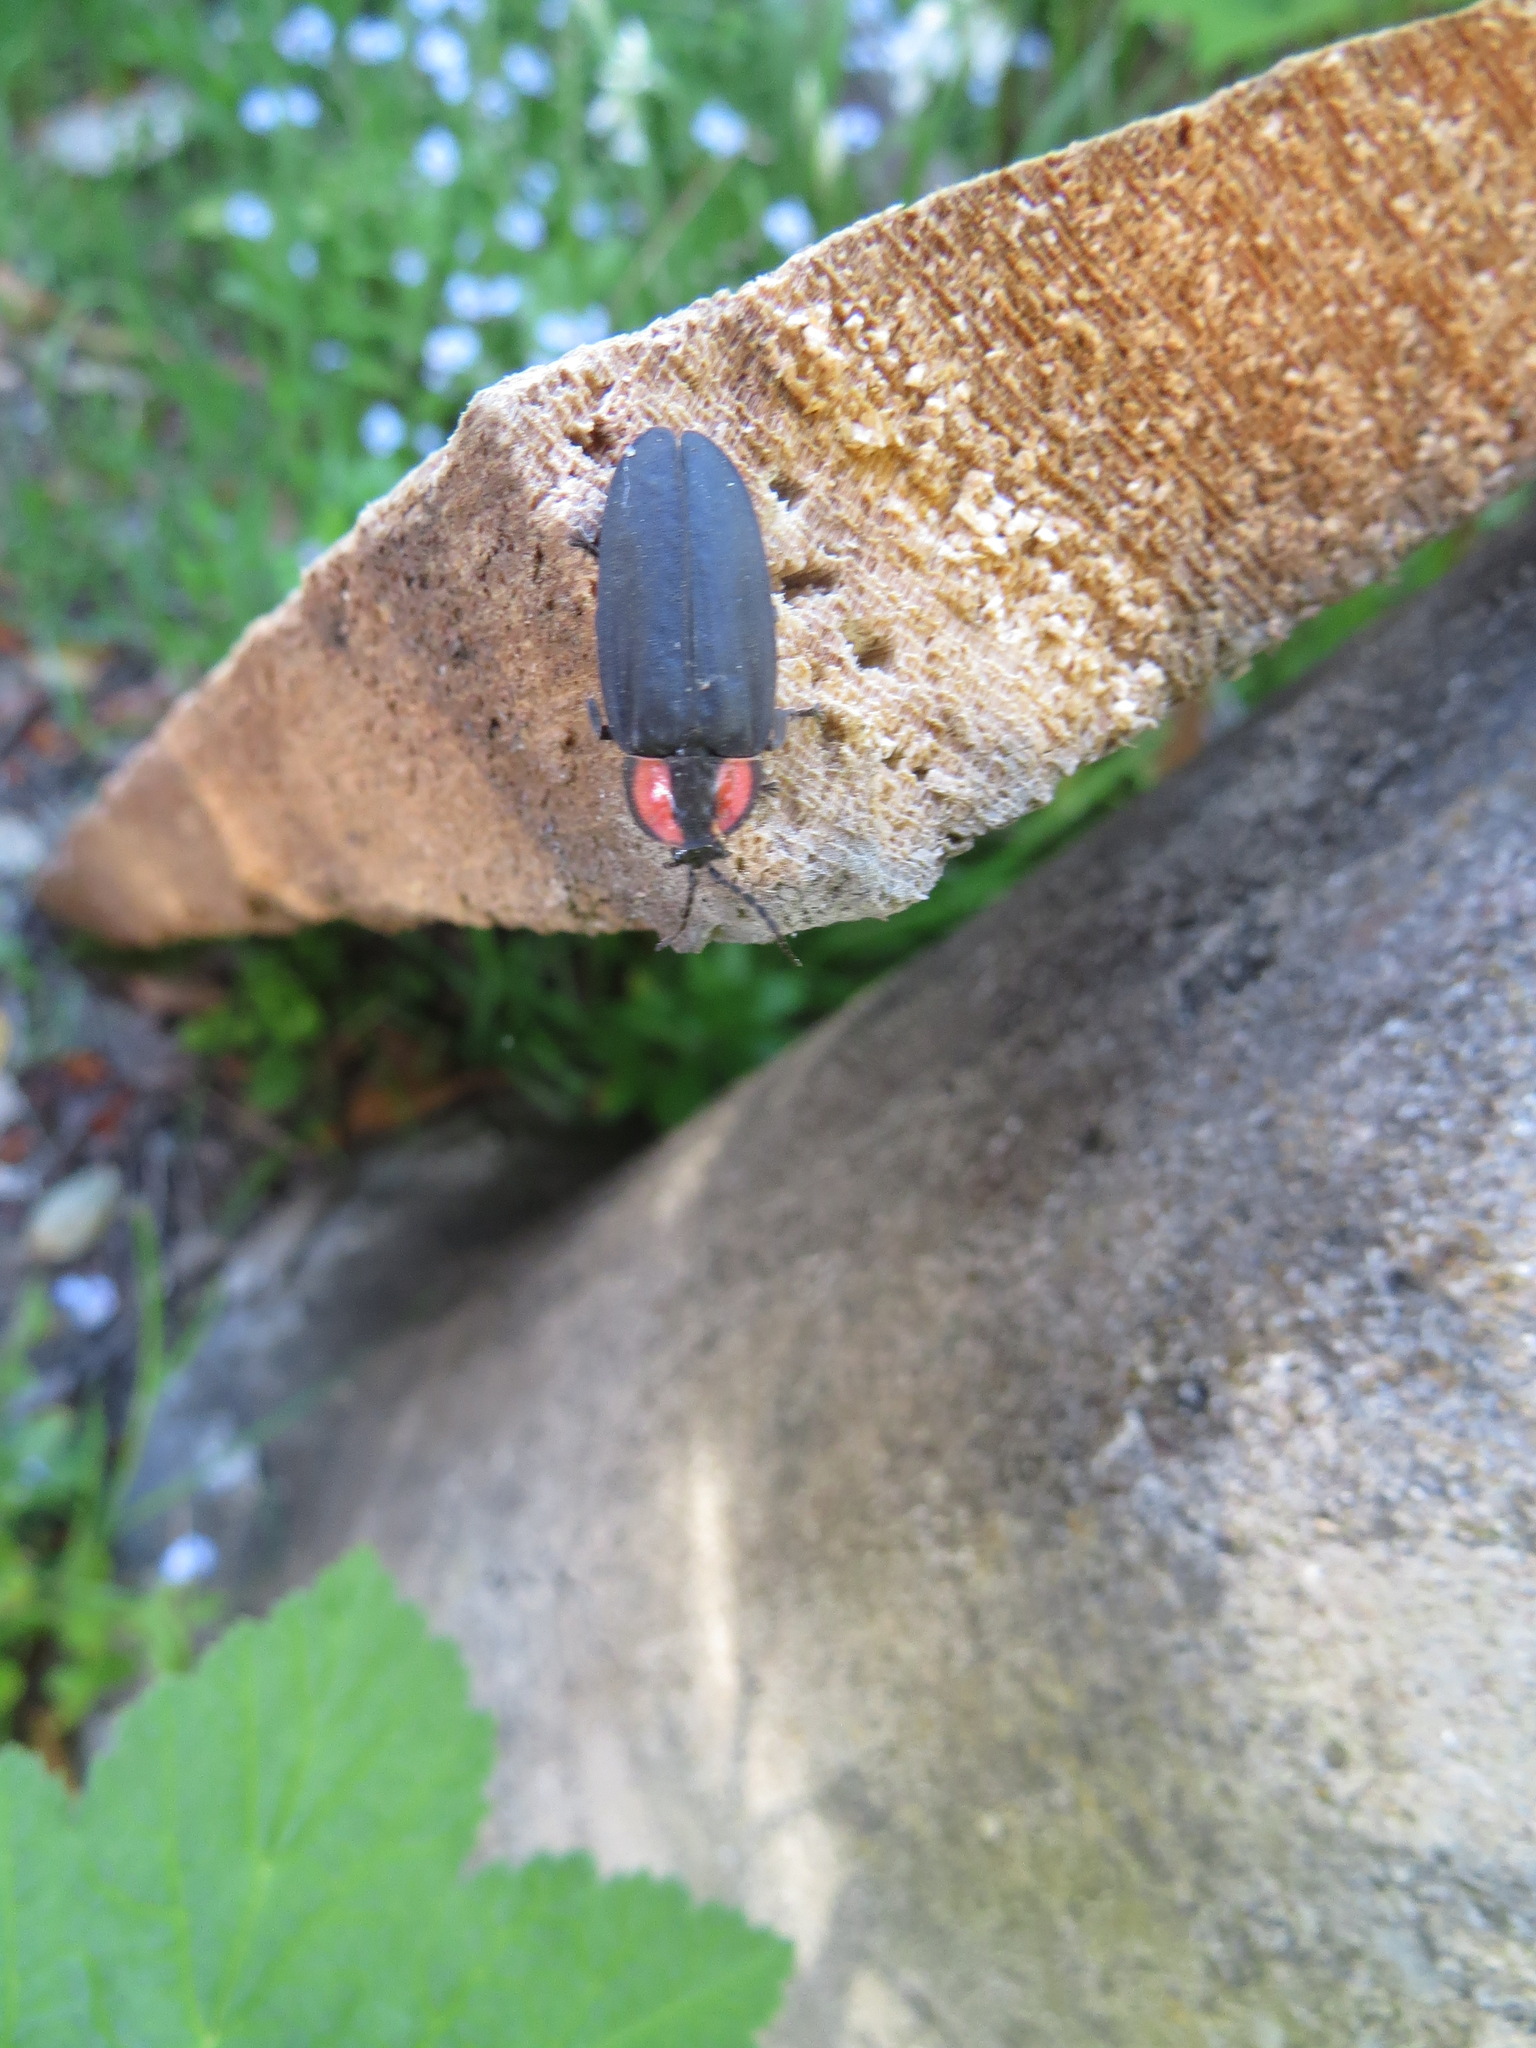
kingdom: Animalia
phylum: Arthropoda
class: Insecta
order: Coleoptera
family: Lampyridae
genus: Ellychnia
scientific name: Ellychnia megista
